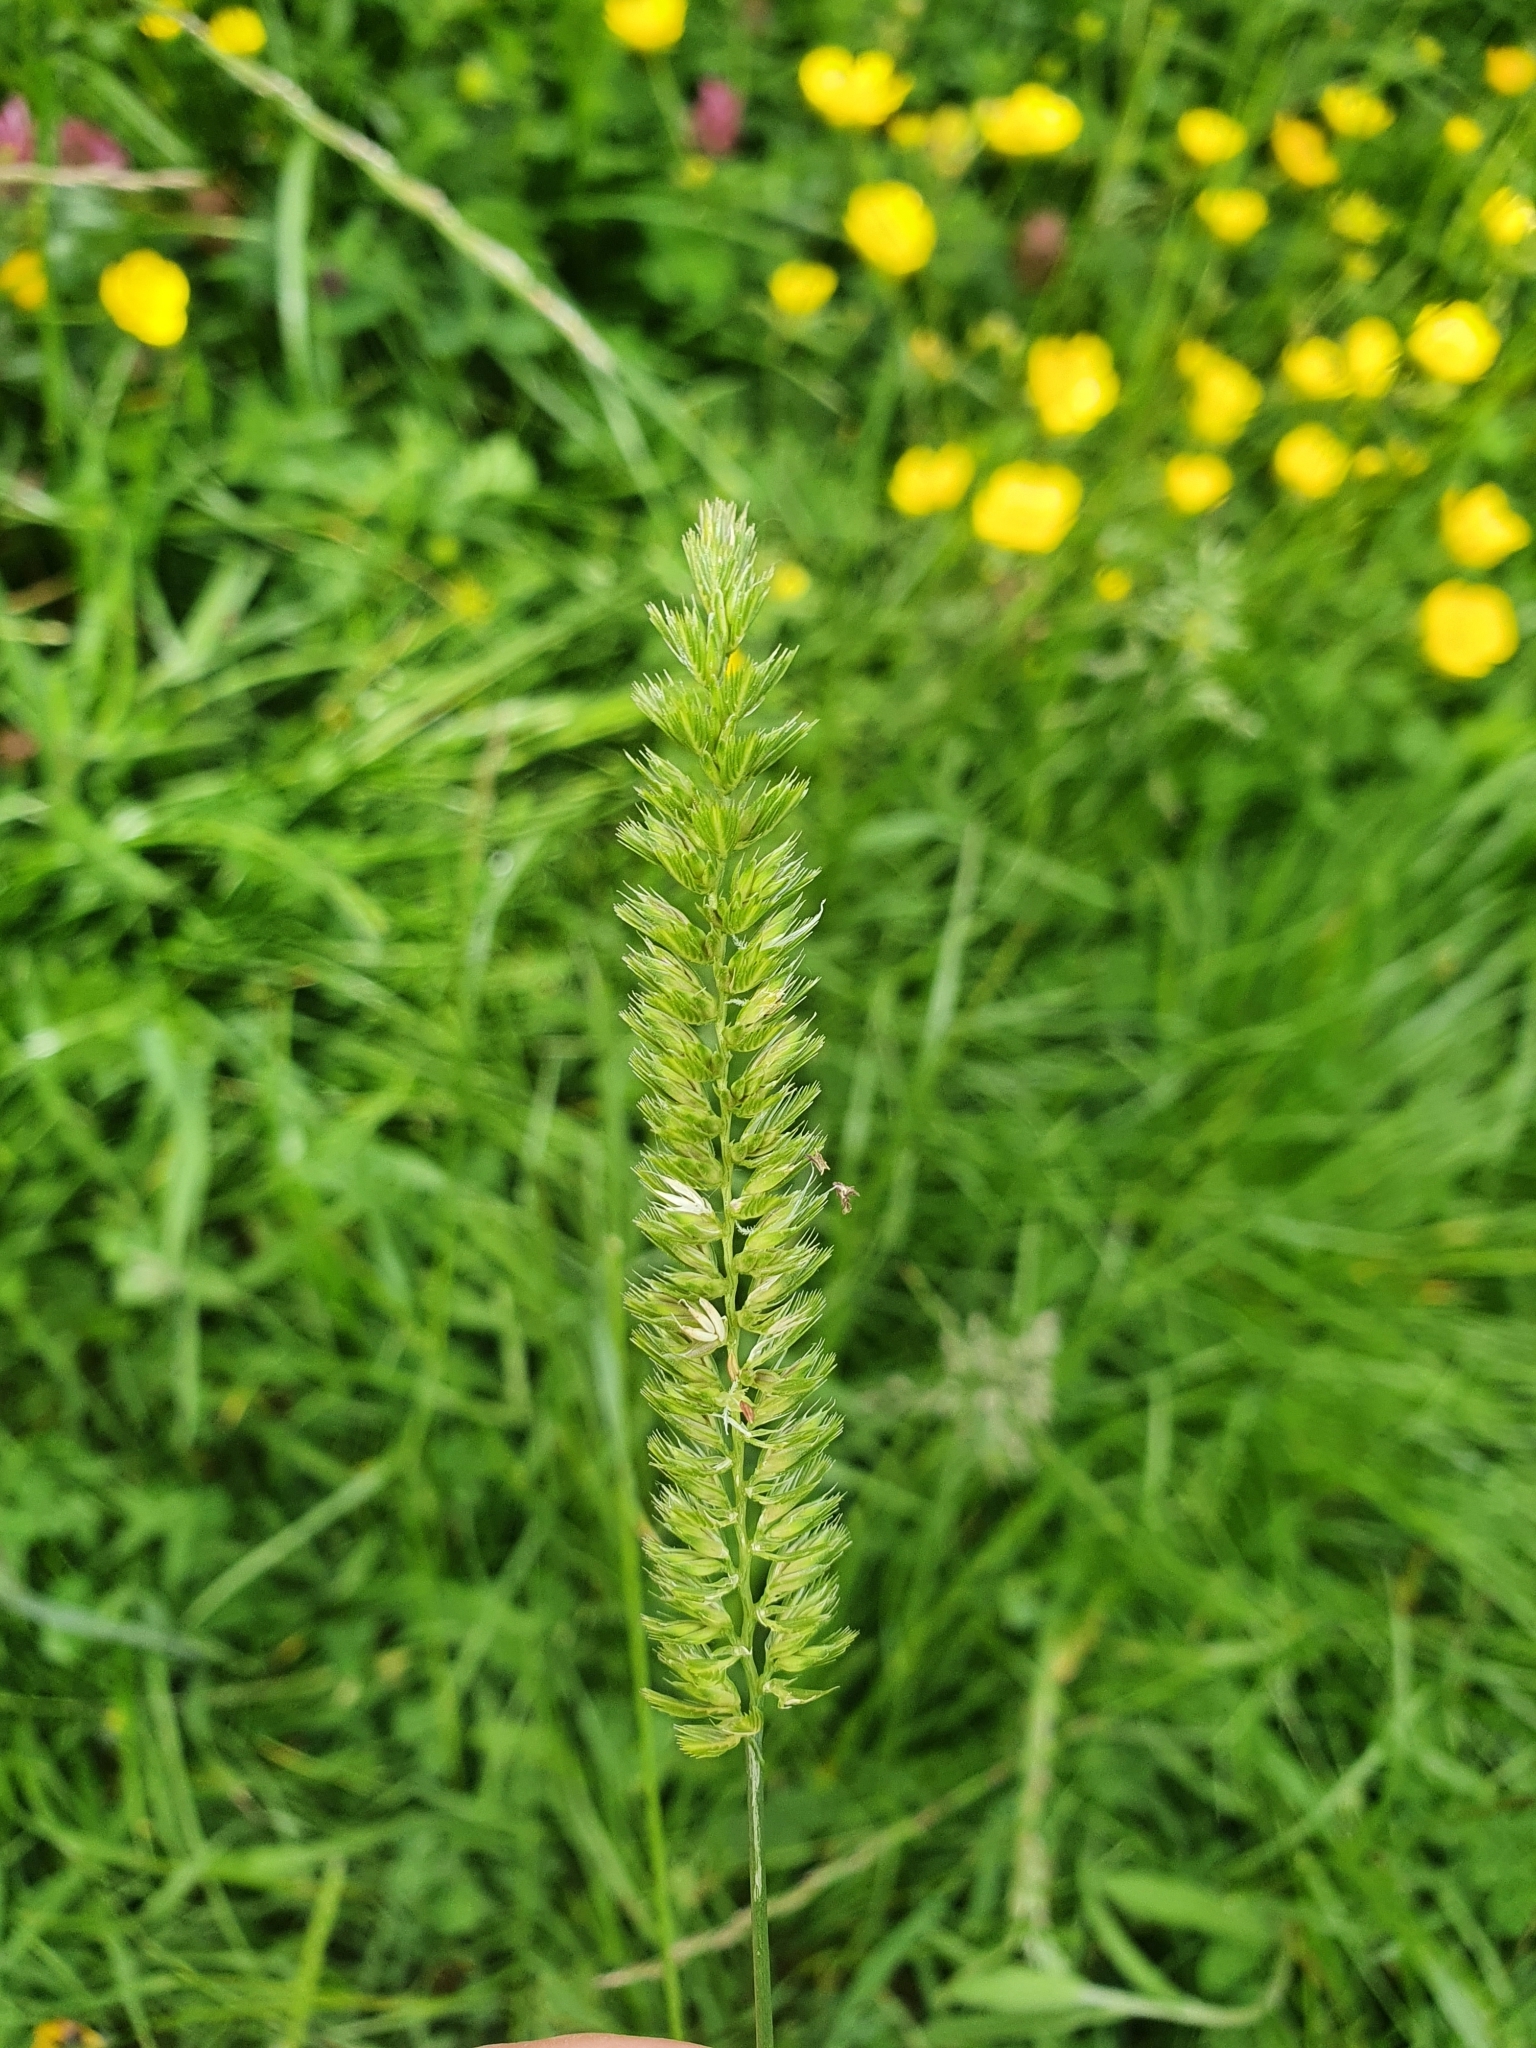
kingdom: Plantae
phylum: Tracheophyta
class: Liliopsida
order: Poales
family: Poaceae
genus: Cynosurus
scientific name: Cynosurus cristatus
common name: Crested dog's-tail
